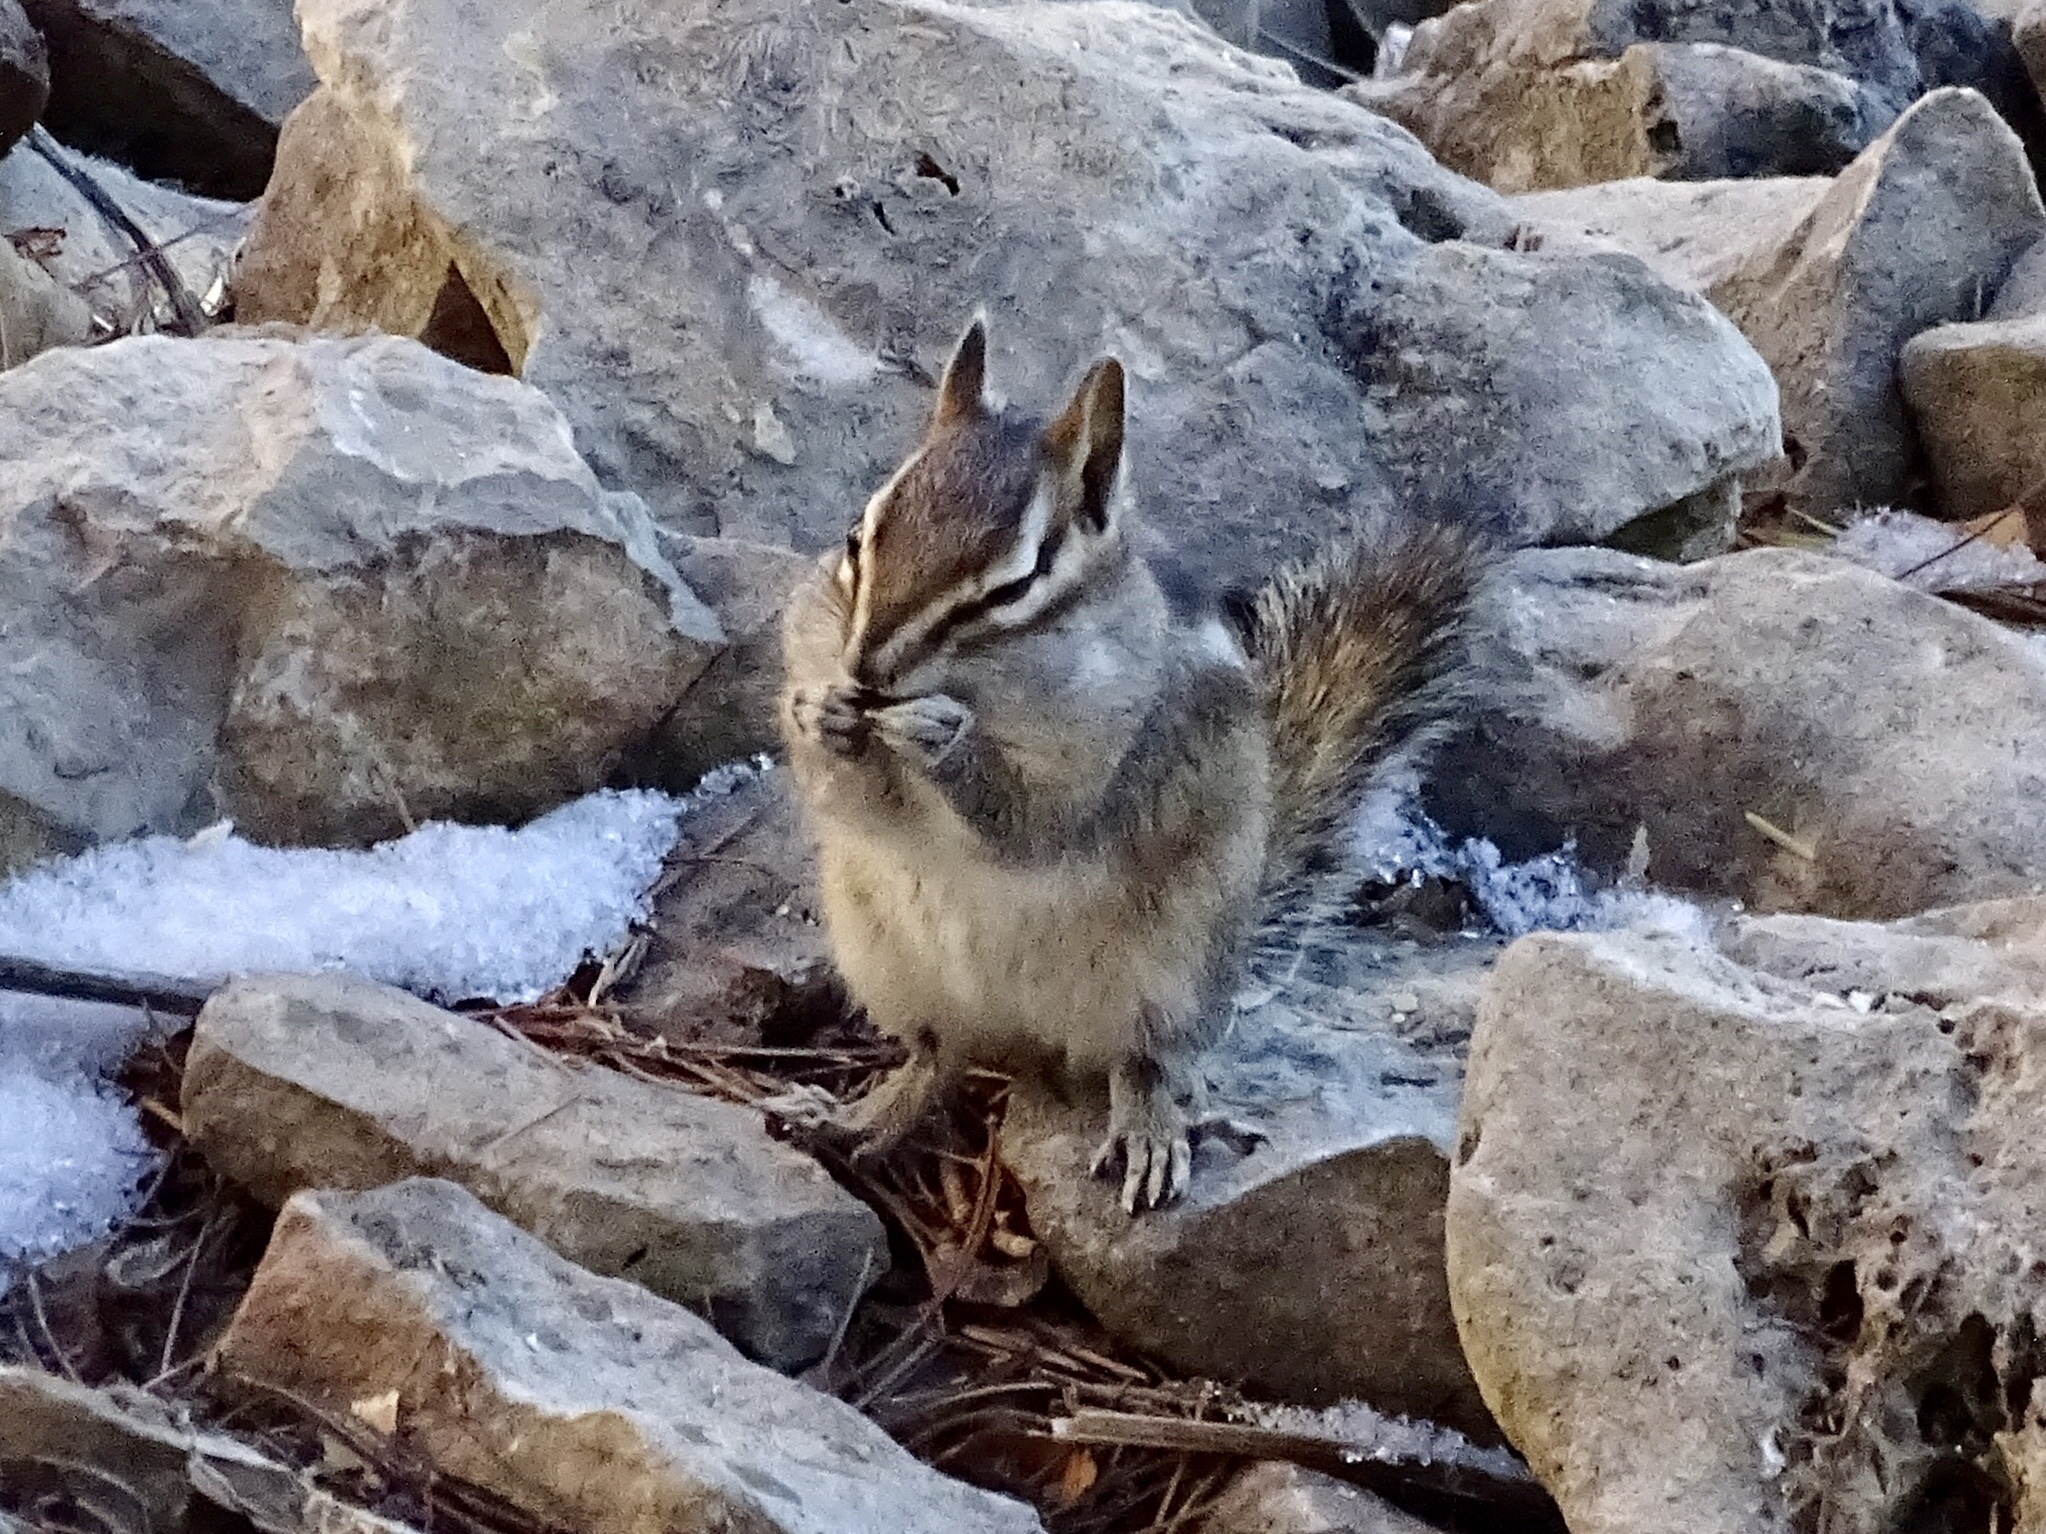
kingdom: Animalia
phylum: Chordata
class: Mammalia
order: Rodentia
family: Sciuridae
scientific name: Sciuridae
